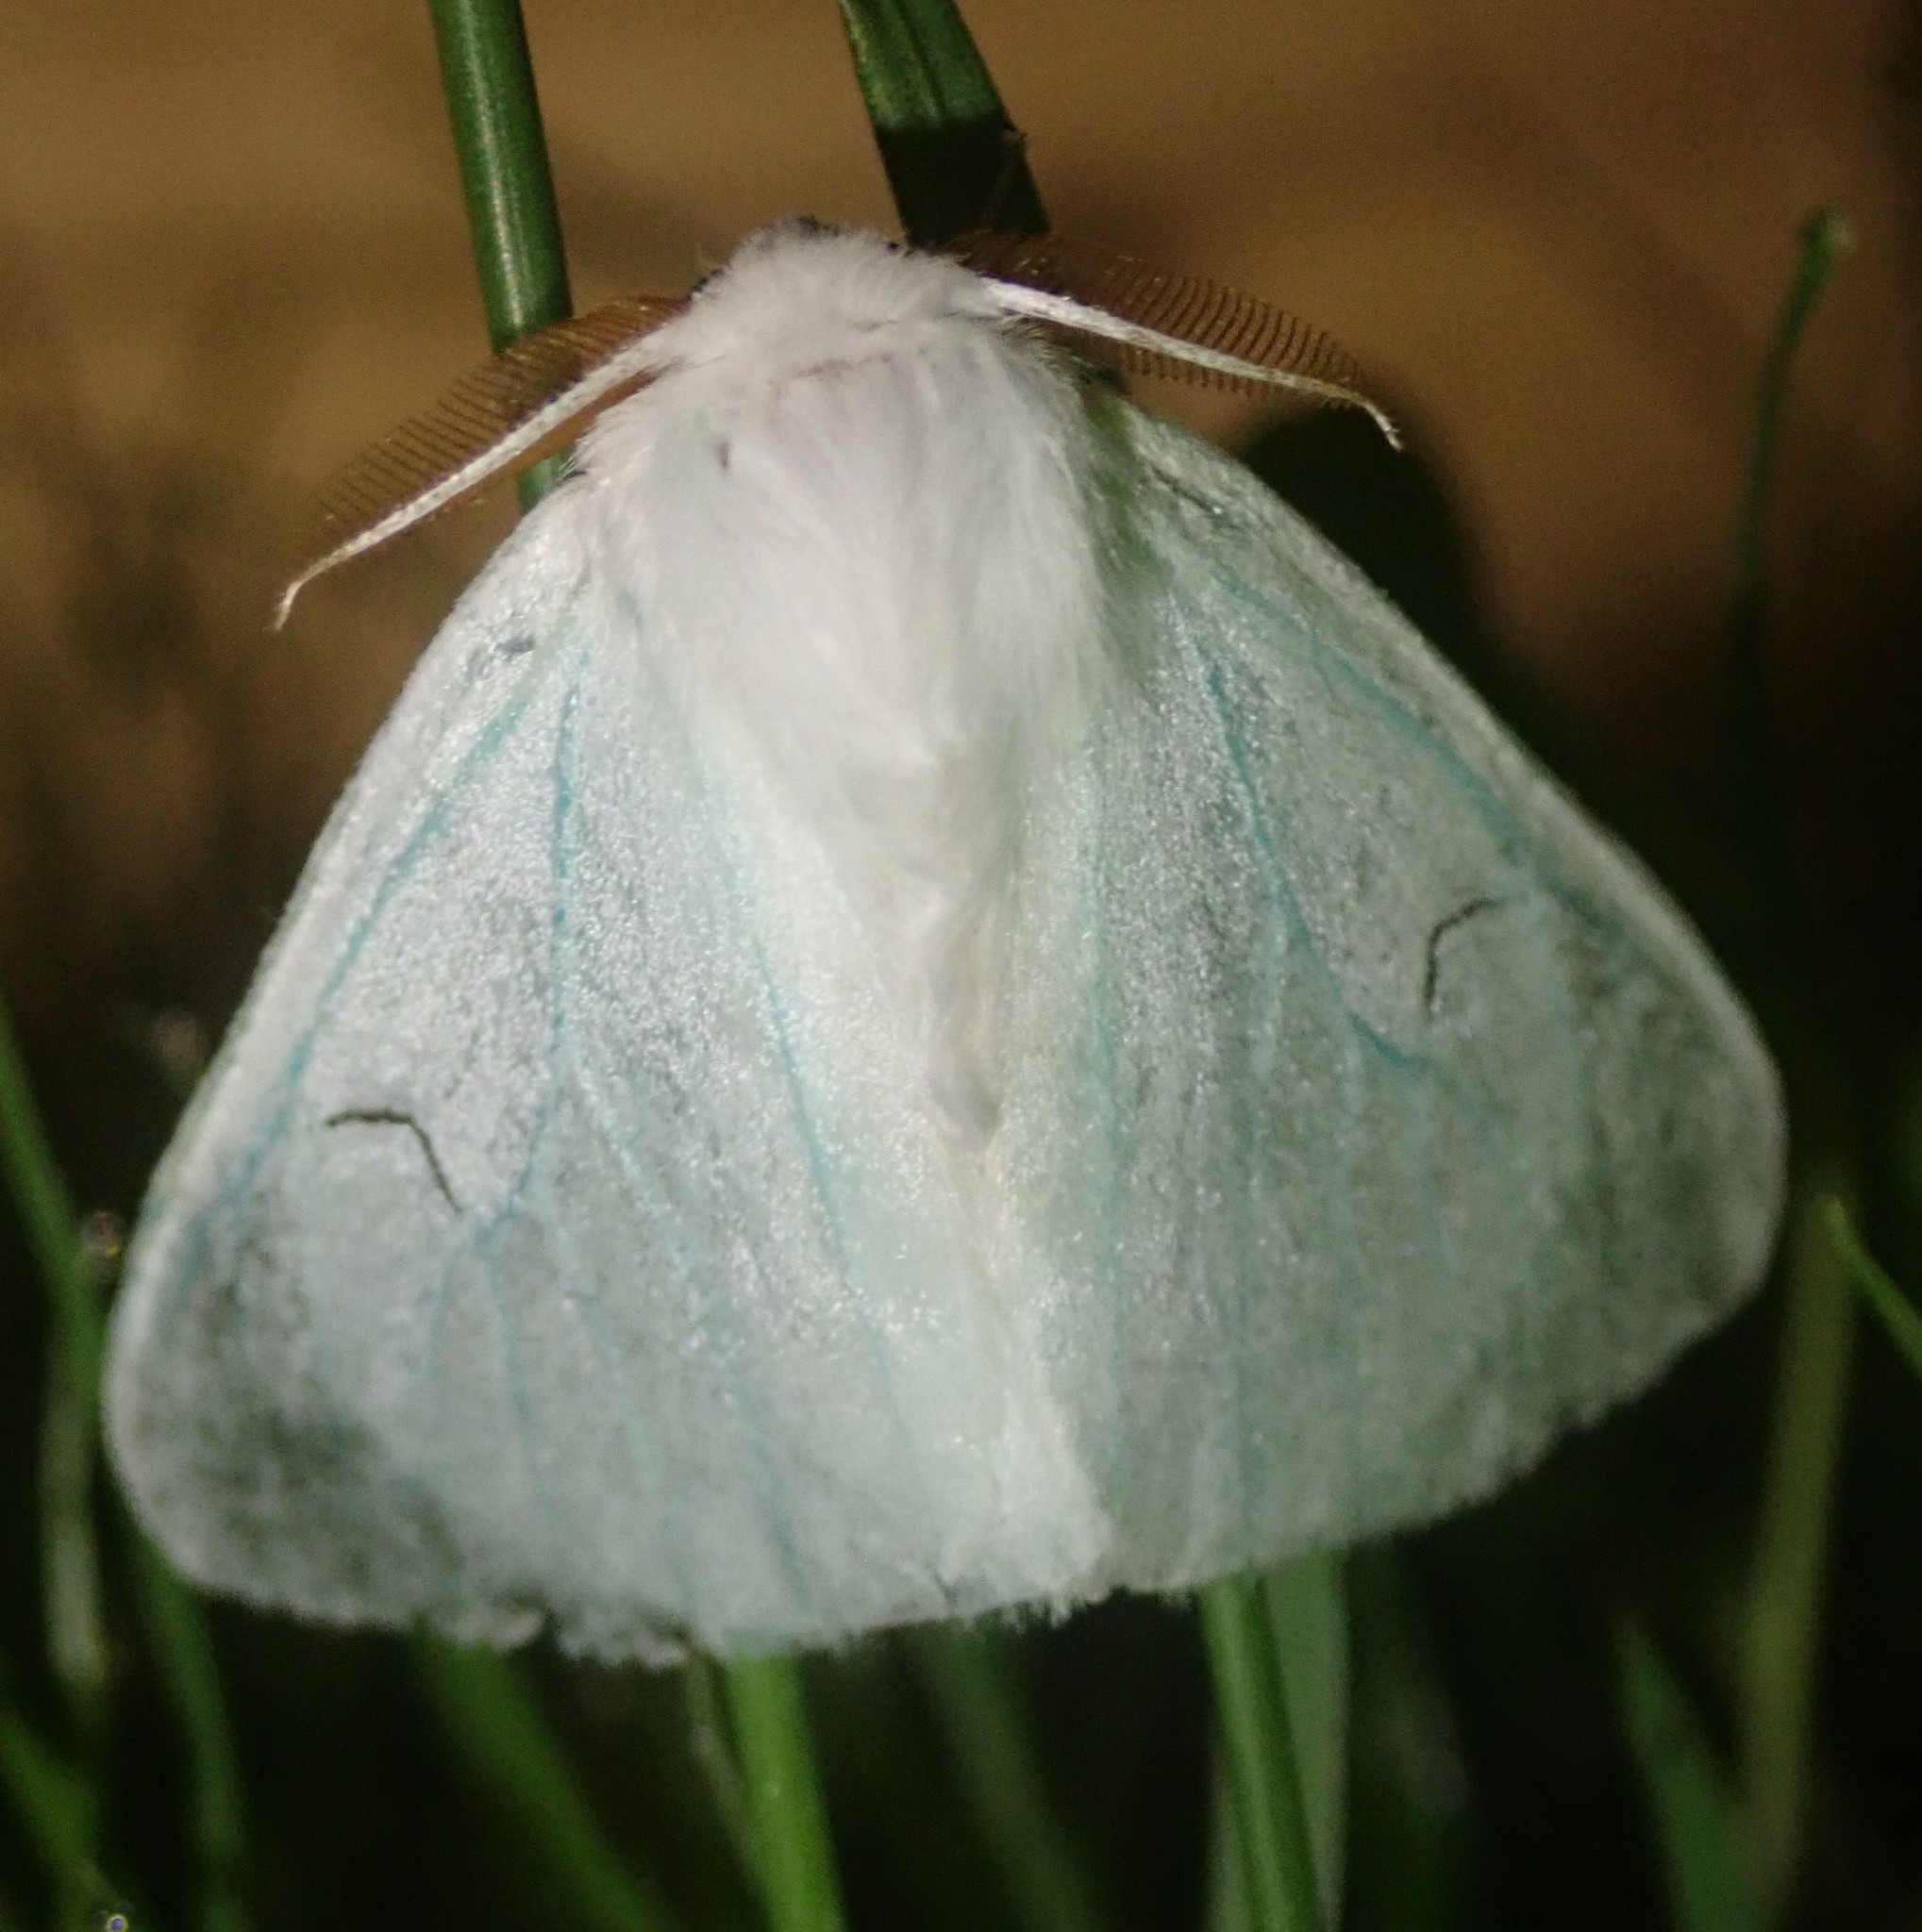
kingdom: Animalia
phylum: Arthropoda
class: Insecta
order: Lepidoptera
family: Erebidae
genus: Arctornis
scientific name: Arctornis l-nigrum
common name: Black v moth
